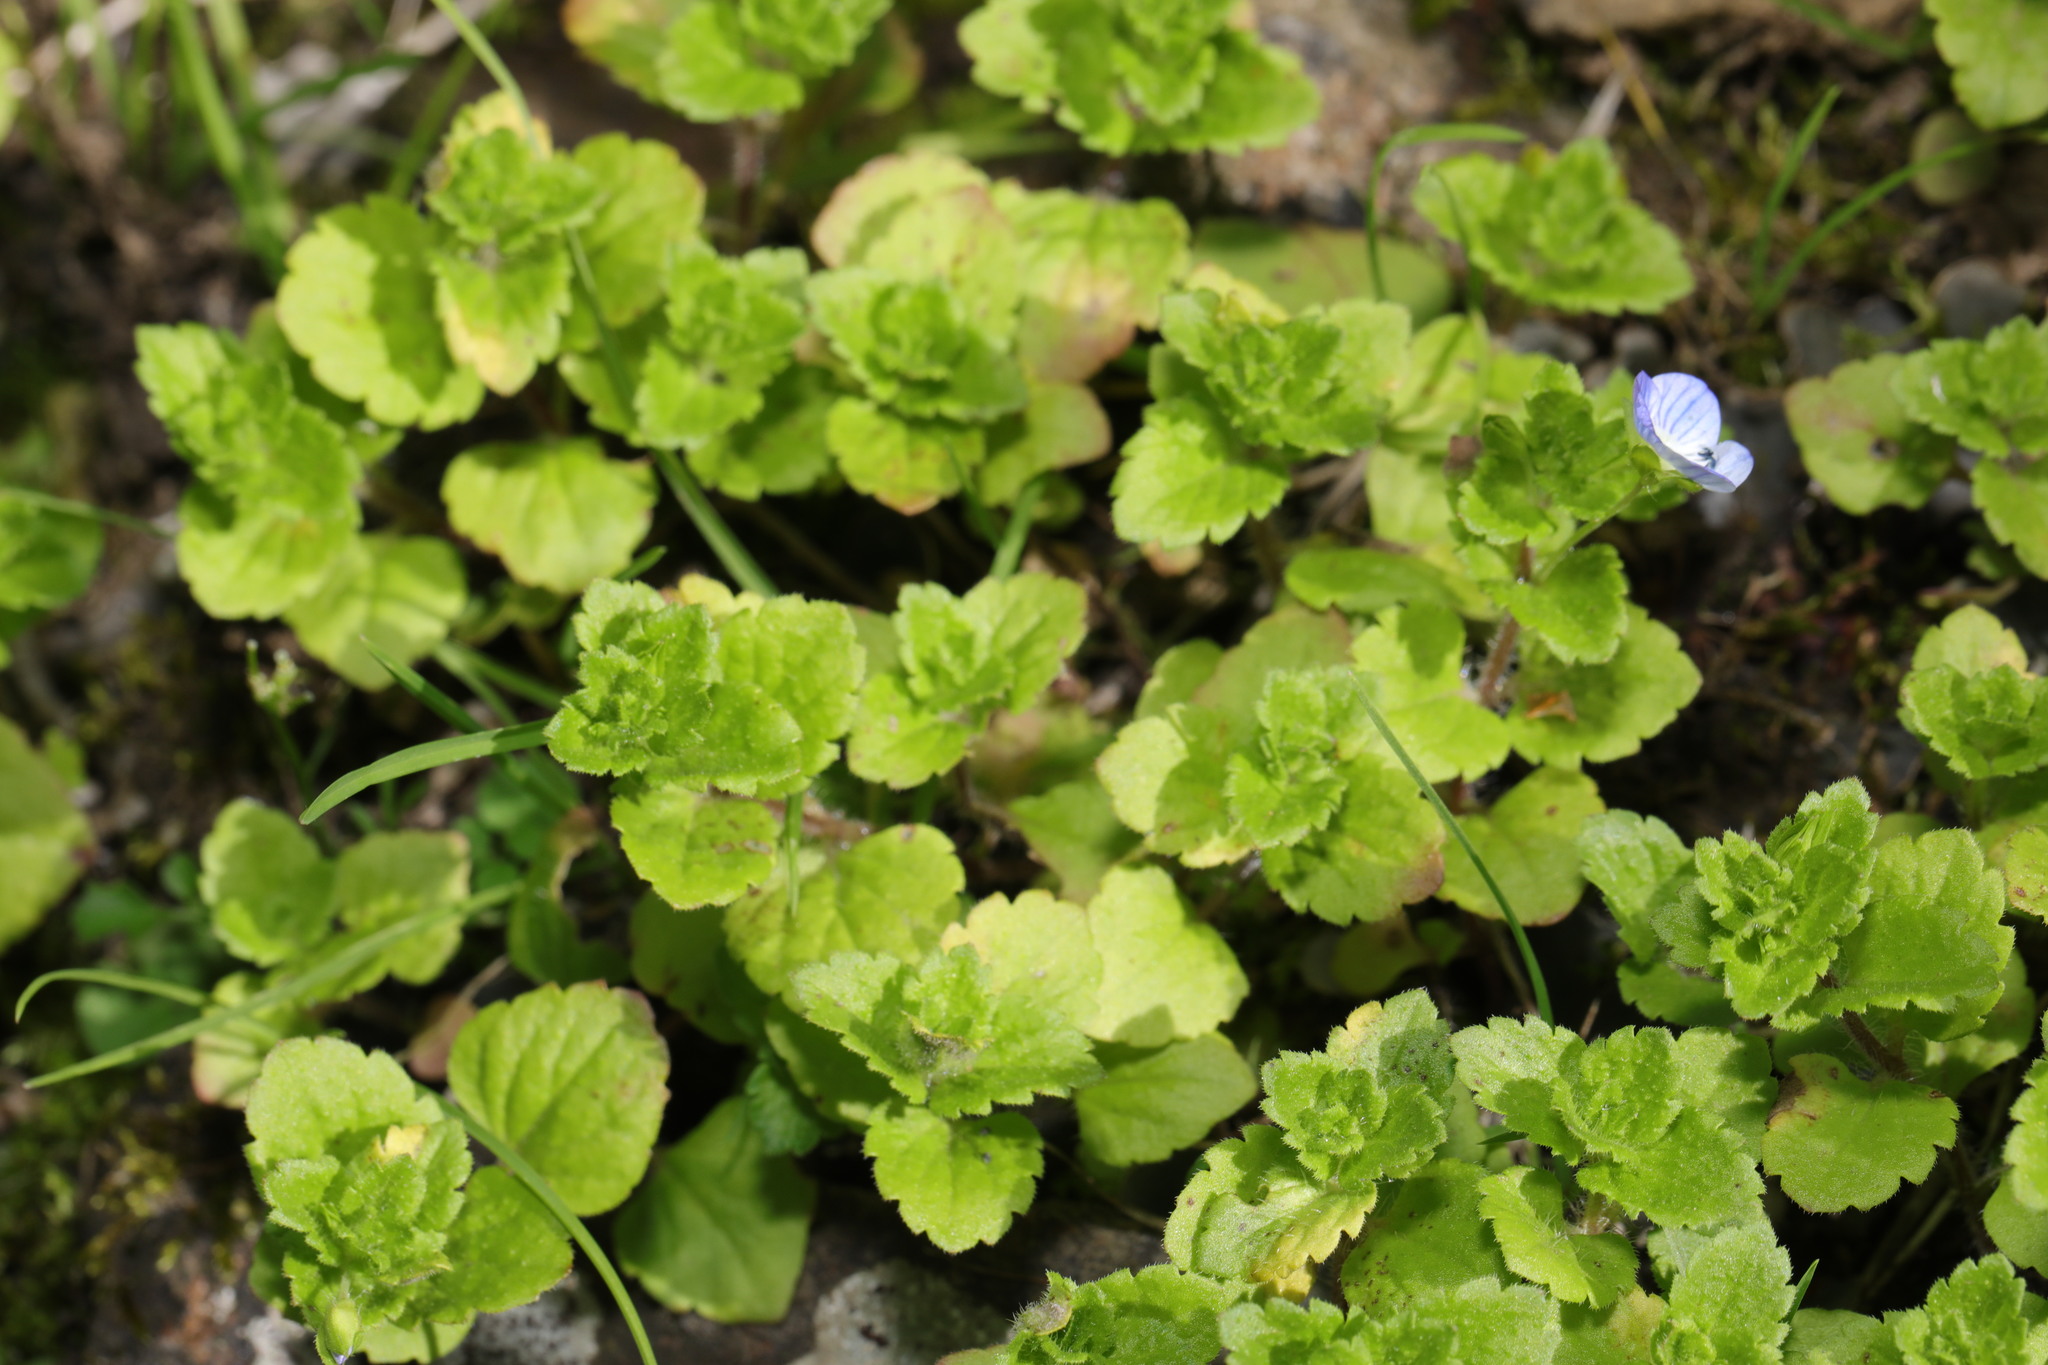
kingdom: Plantae
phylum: Tracheophyta
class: Magnoliopsida
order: Lamiales
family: Plantaginaceae
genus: Veronica
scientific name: Veronica persica
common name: Common field-speedwell
